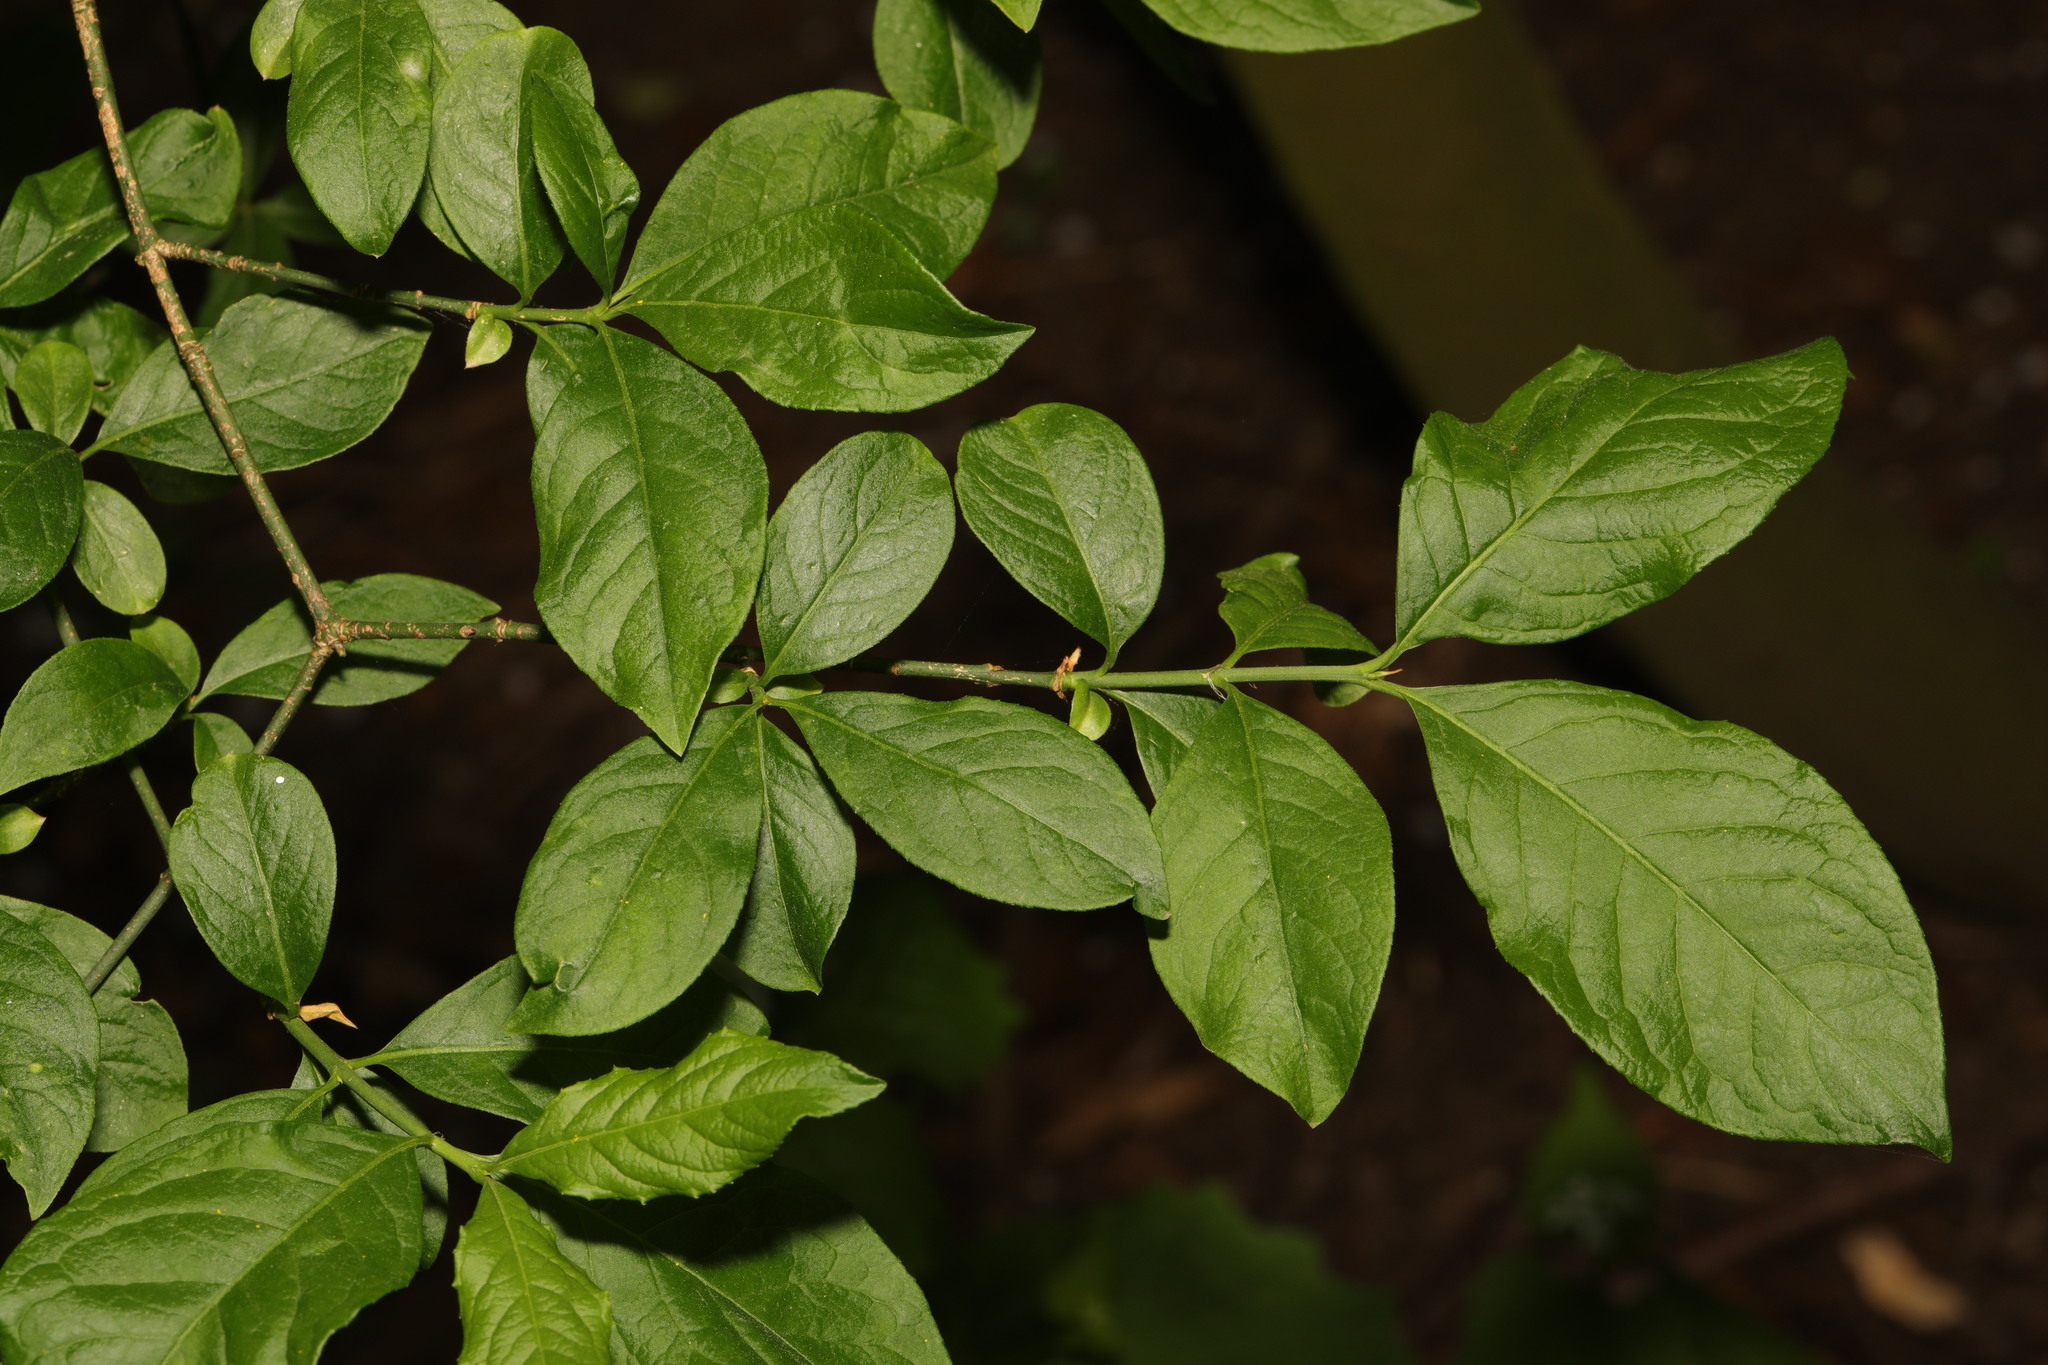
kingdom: Plantae
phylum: Tracheophyta
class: Magnoliopsida
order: Celastrales
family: Celastraceae
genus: Euonymus
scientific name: Euonymus europaeus
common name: Spindle
